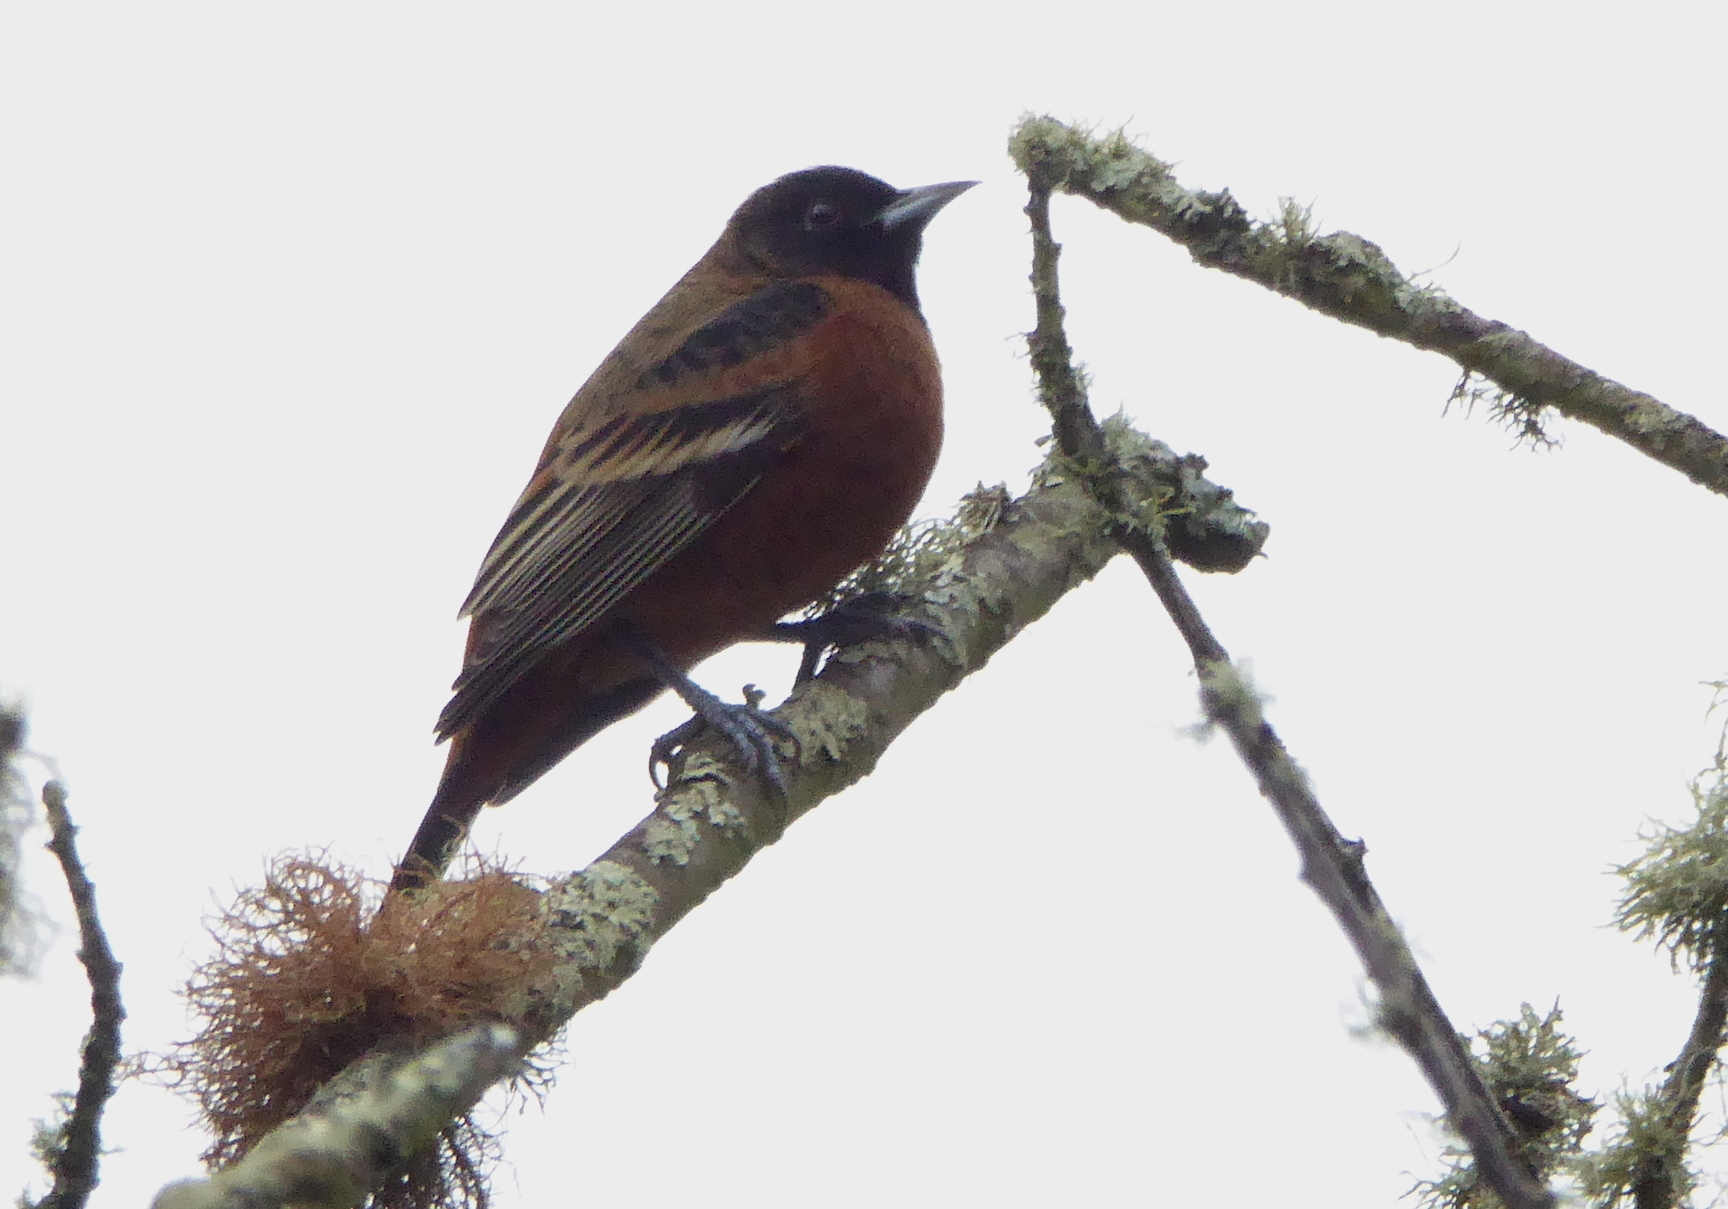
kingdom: Animalia
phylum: Chordata
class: Aves
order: Passeriformes
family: Icteridae
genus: Icterus
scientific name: Icterus spurius
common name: Orchard oriole
